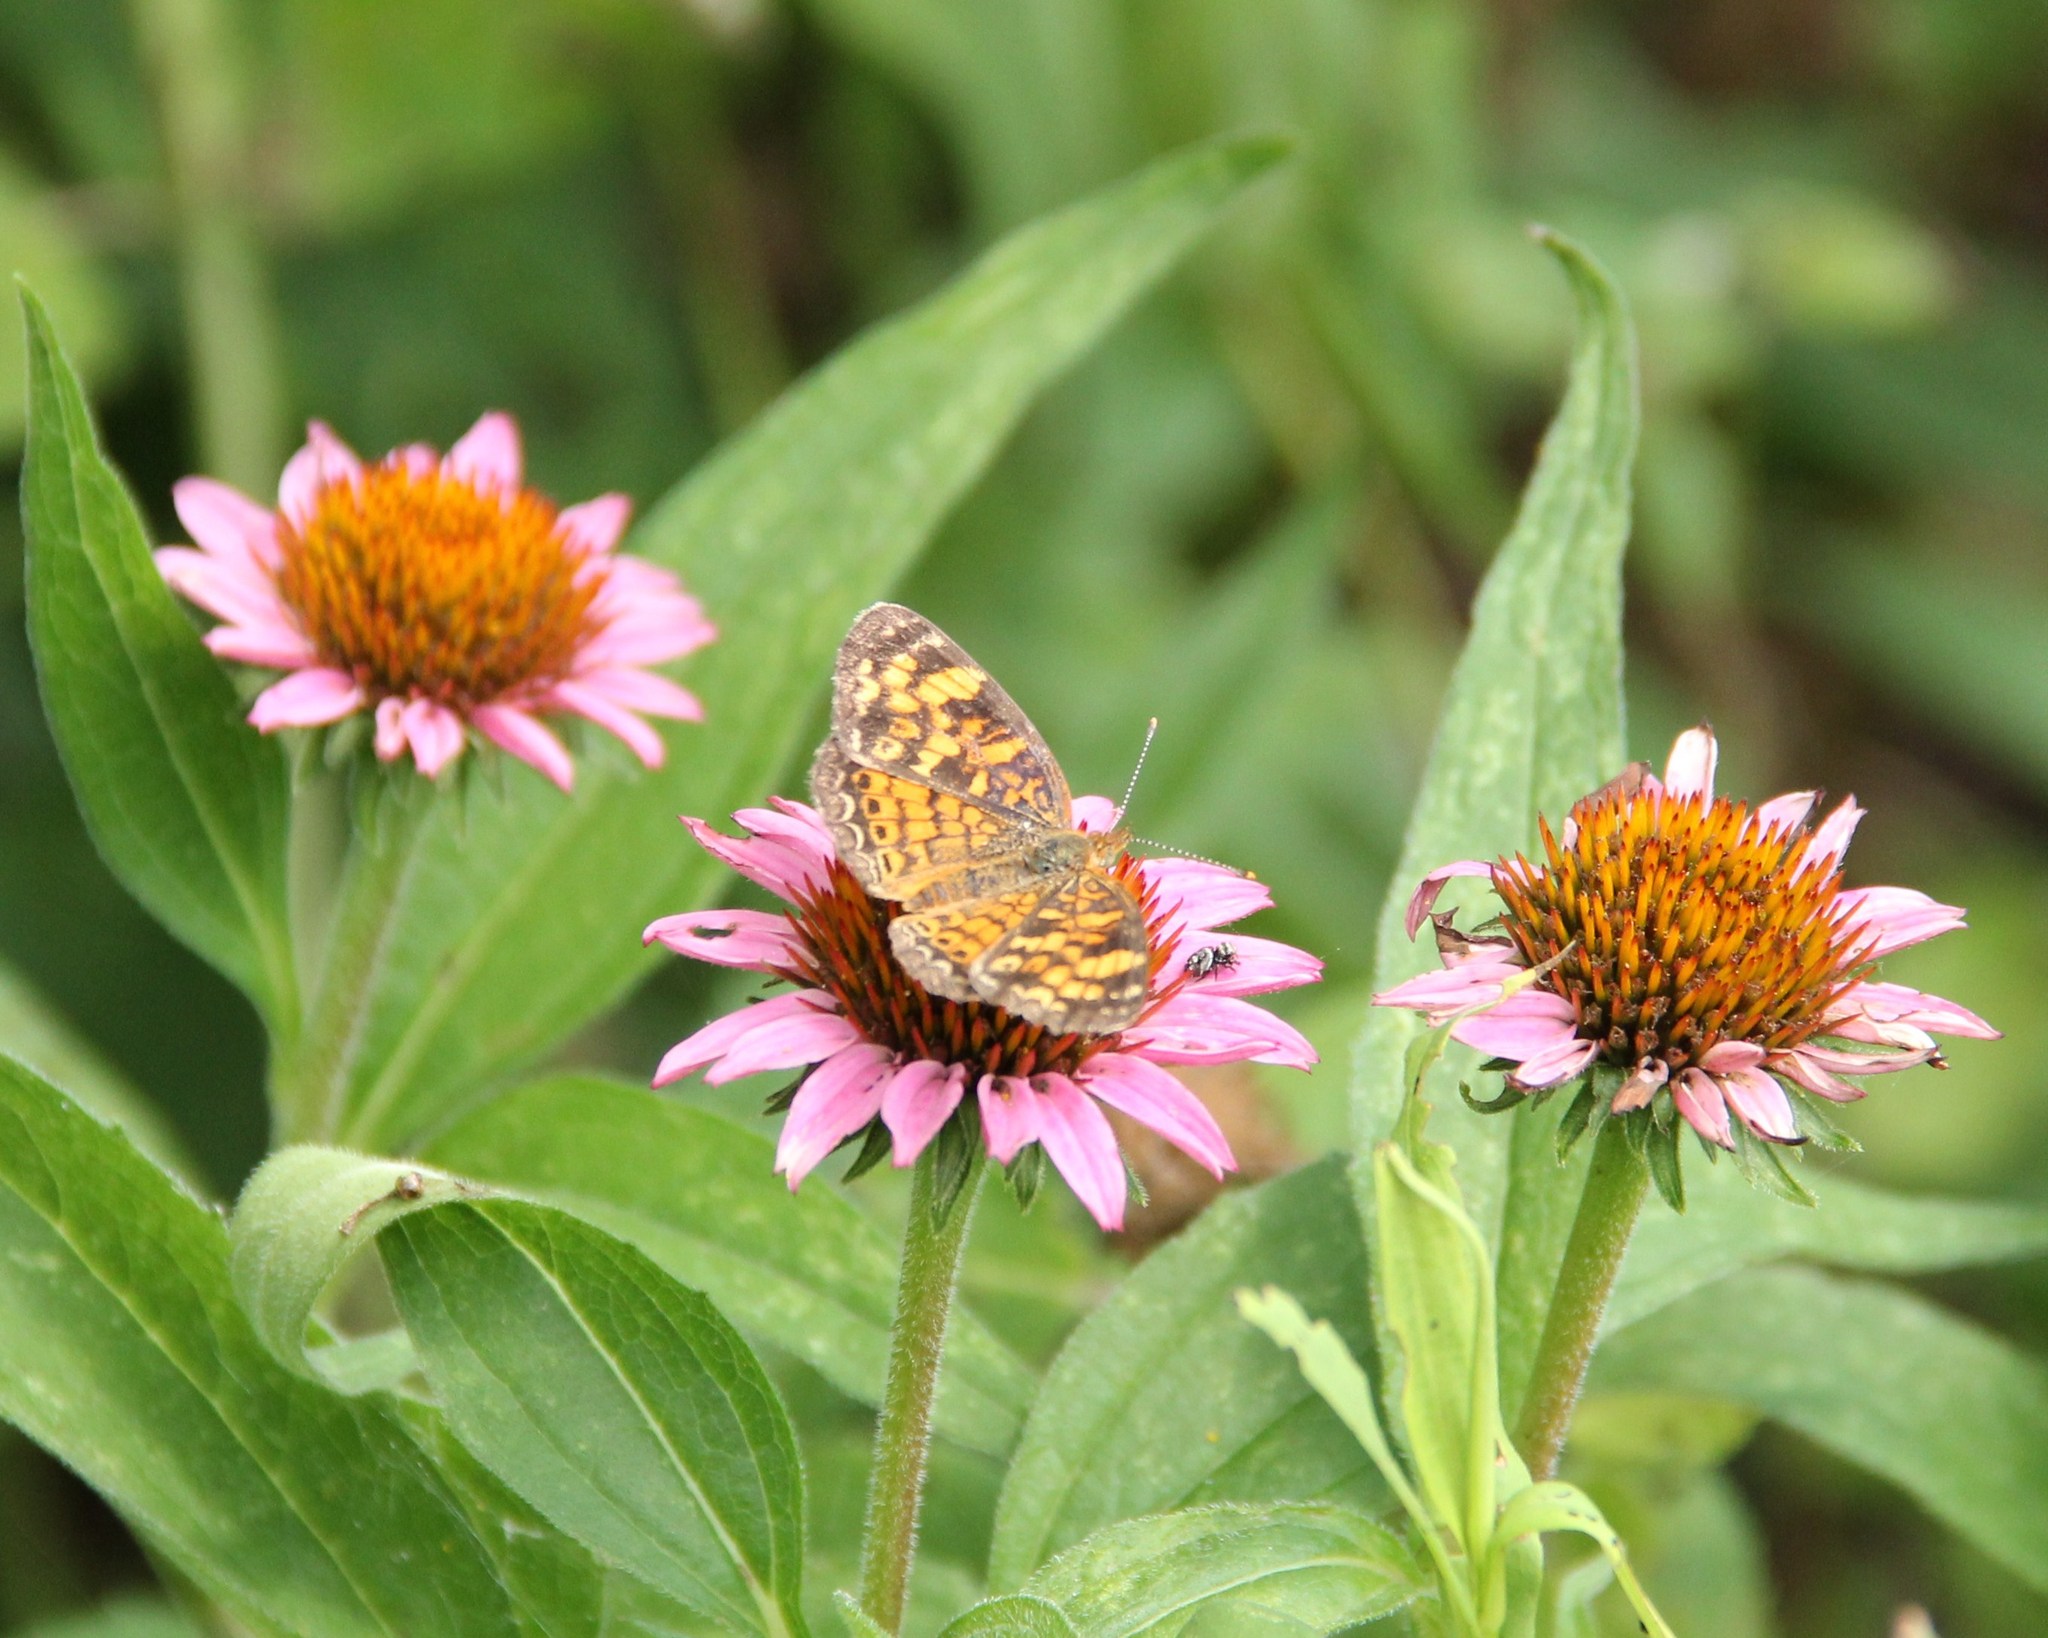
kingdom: Animalia
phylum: Arthropoda
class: Insecta
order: Lepidoptera
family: Nymphalidae
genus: Phyciodes
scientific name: Phyciodes tharos
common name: Pearl crescent
